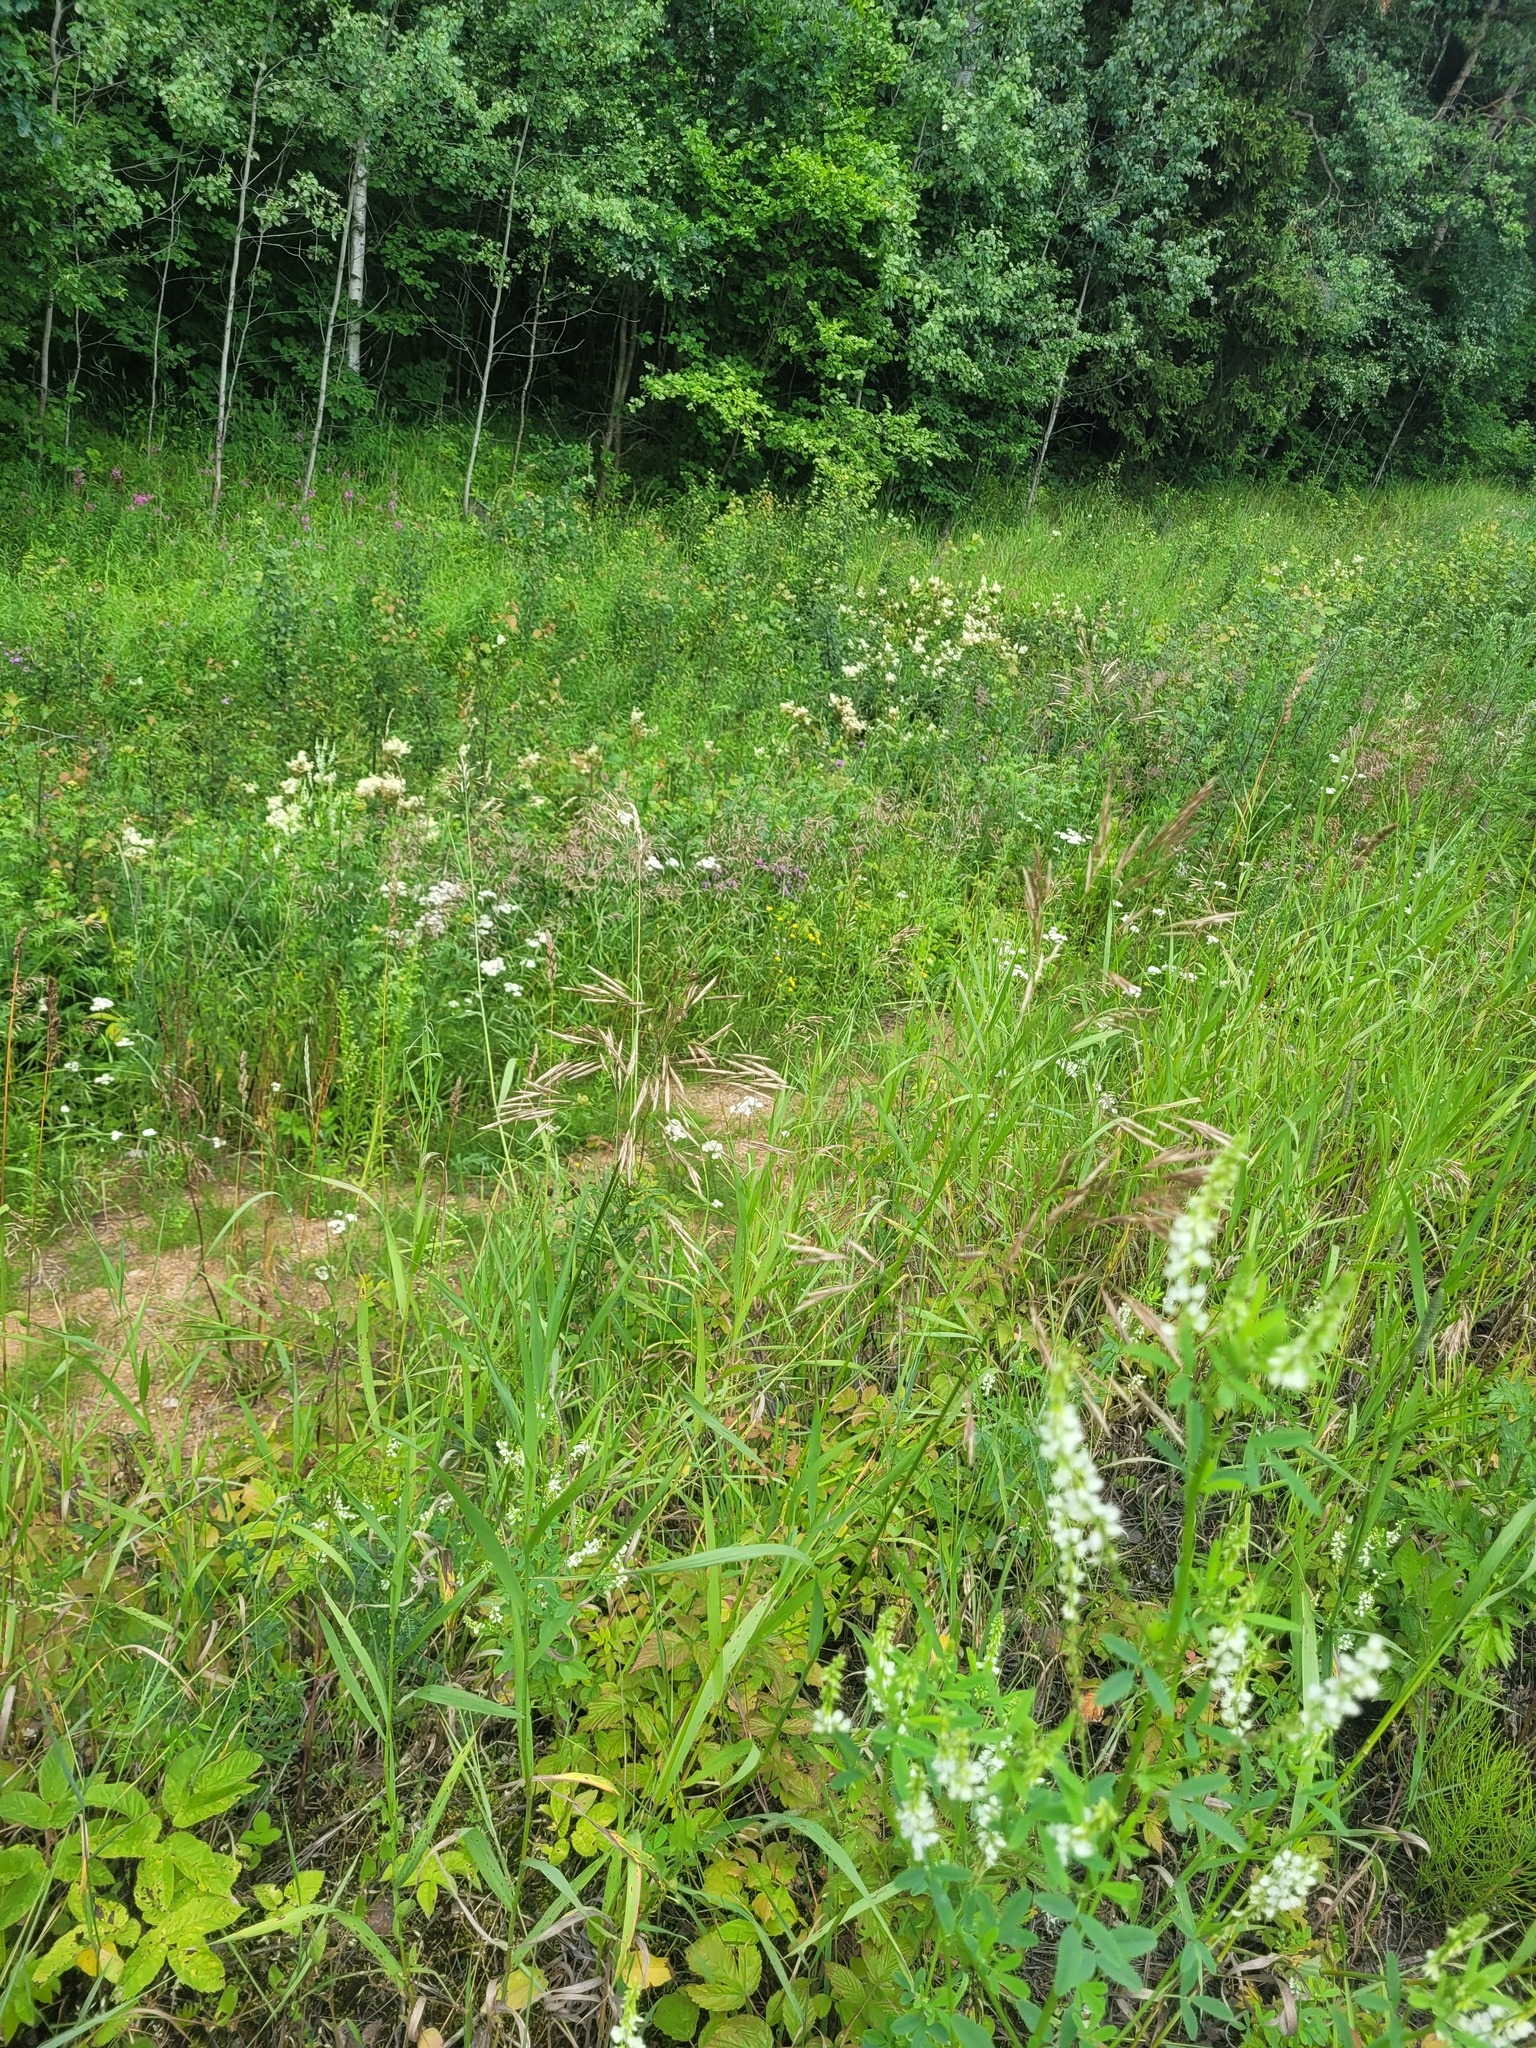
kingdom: Plantae
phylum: Tracheophyta
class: Liliopsida
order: Poales
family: Poaceae
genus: Bromus
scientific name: Bromus inermis
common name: Smooth brome
